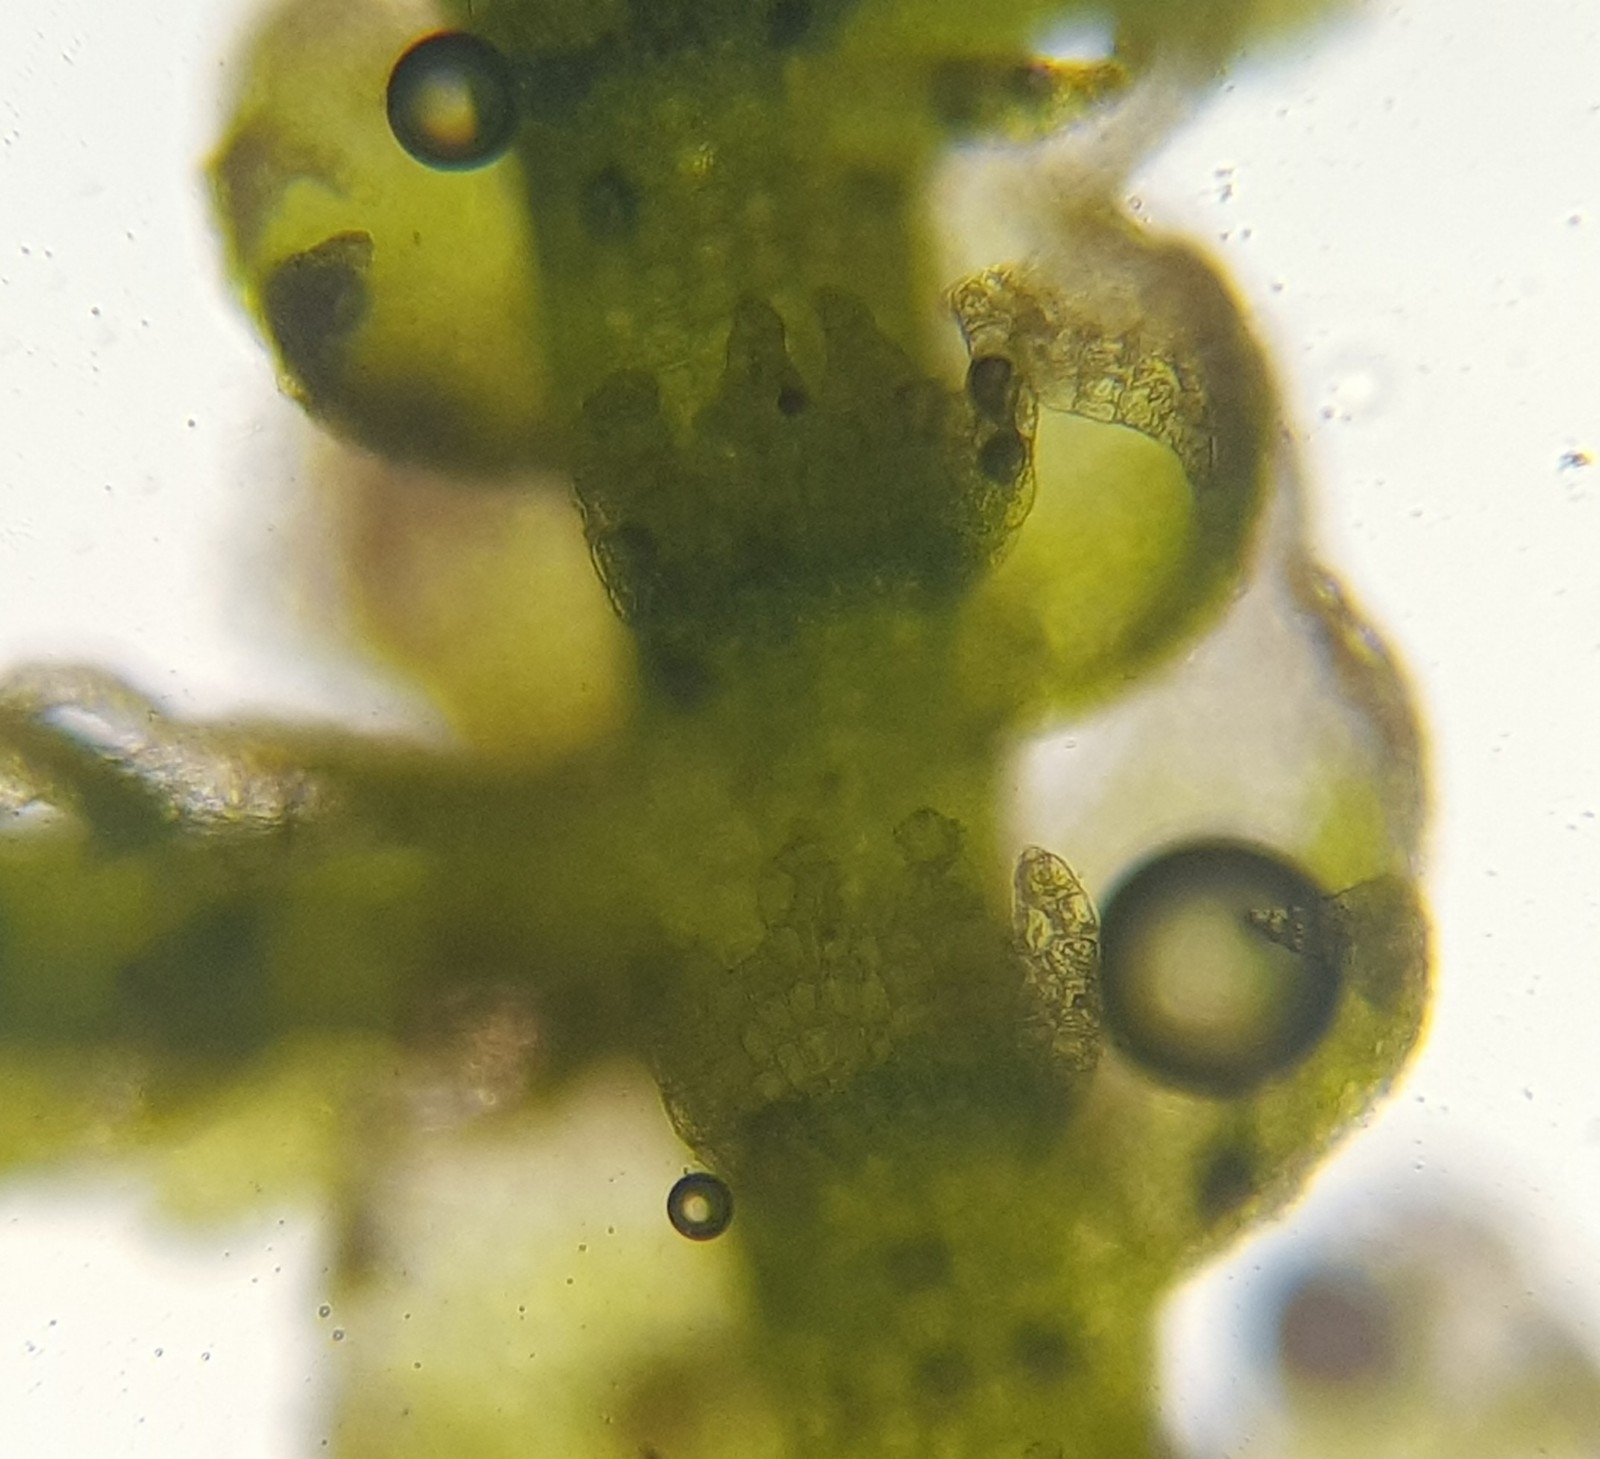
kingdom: Plantae
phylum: Marchantiophyta
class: Jungermanniopsida
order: Jungermanniales
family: Lepidoziaceae
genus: Lepidozia
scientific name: Lepidozia reptans
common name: Creeping fingerwort
